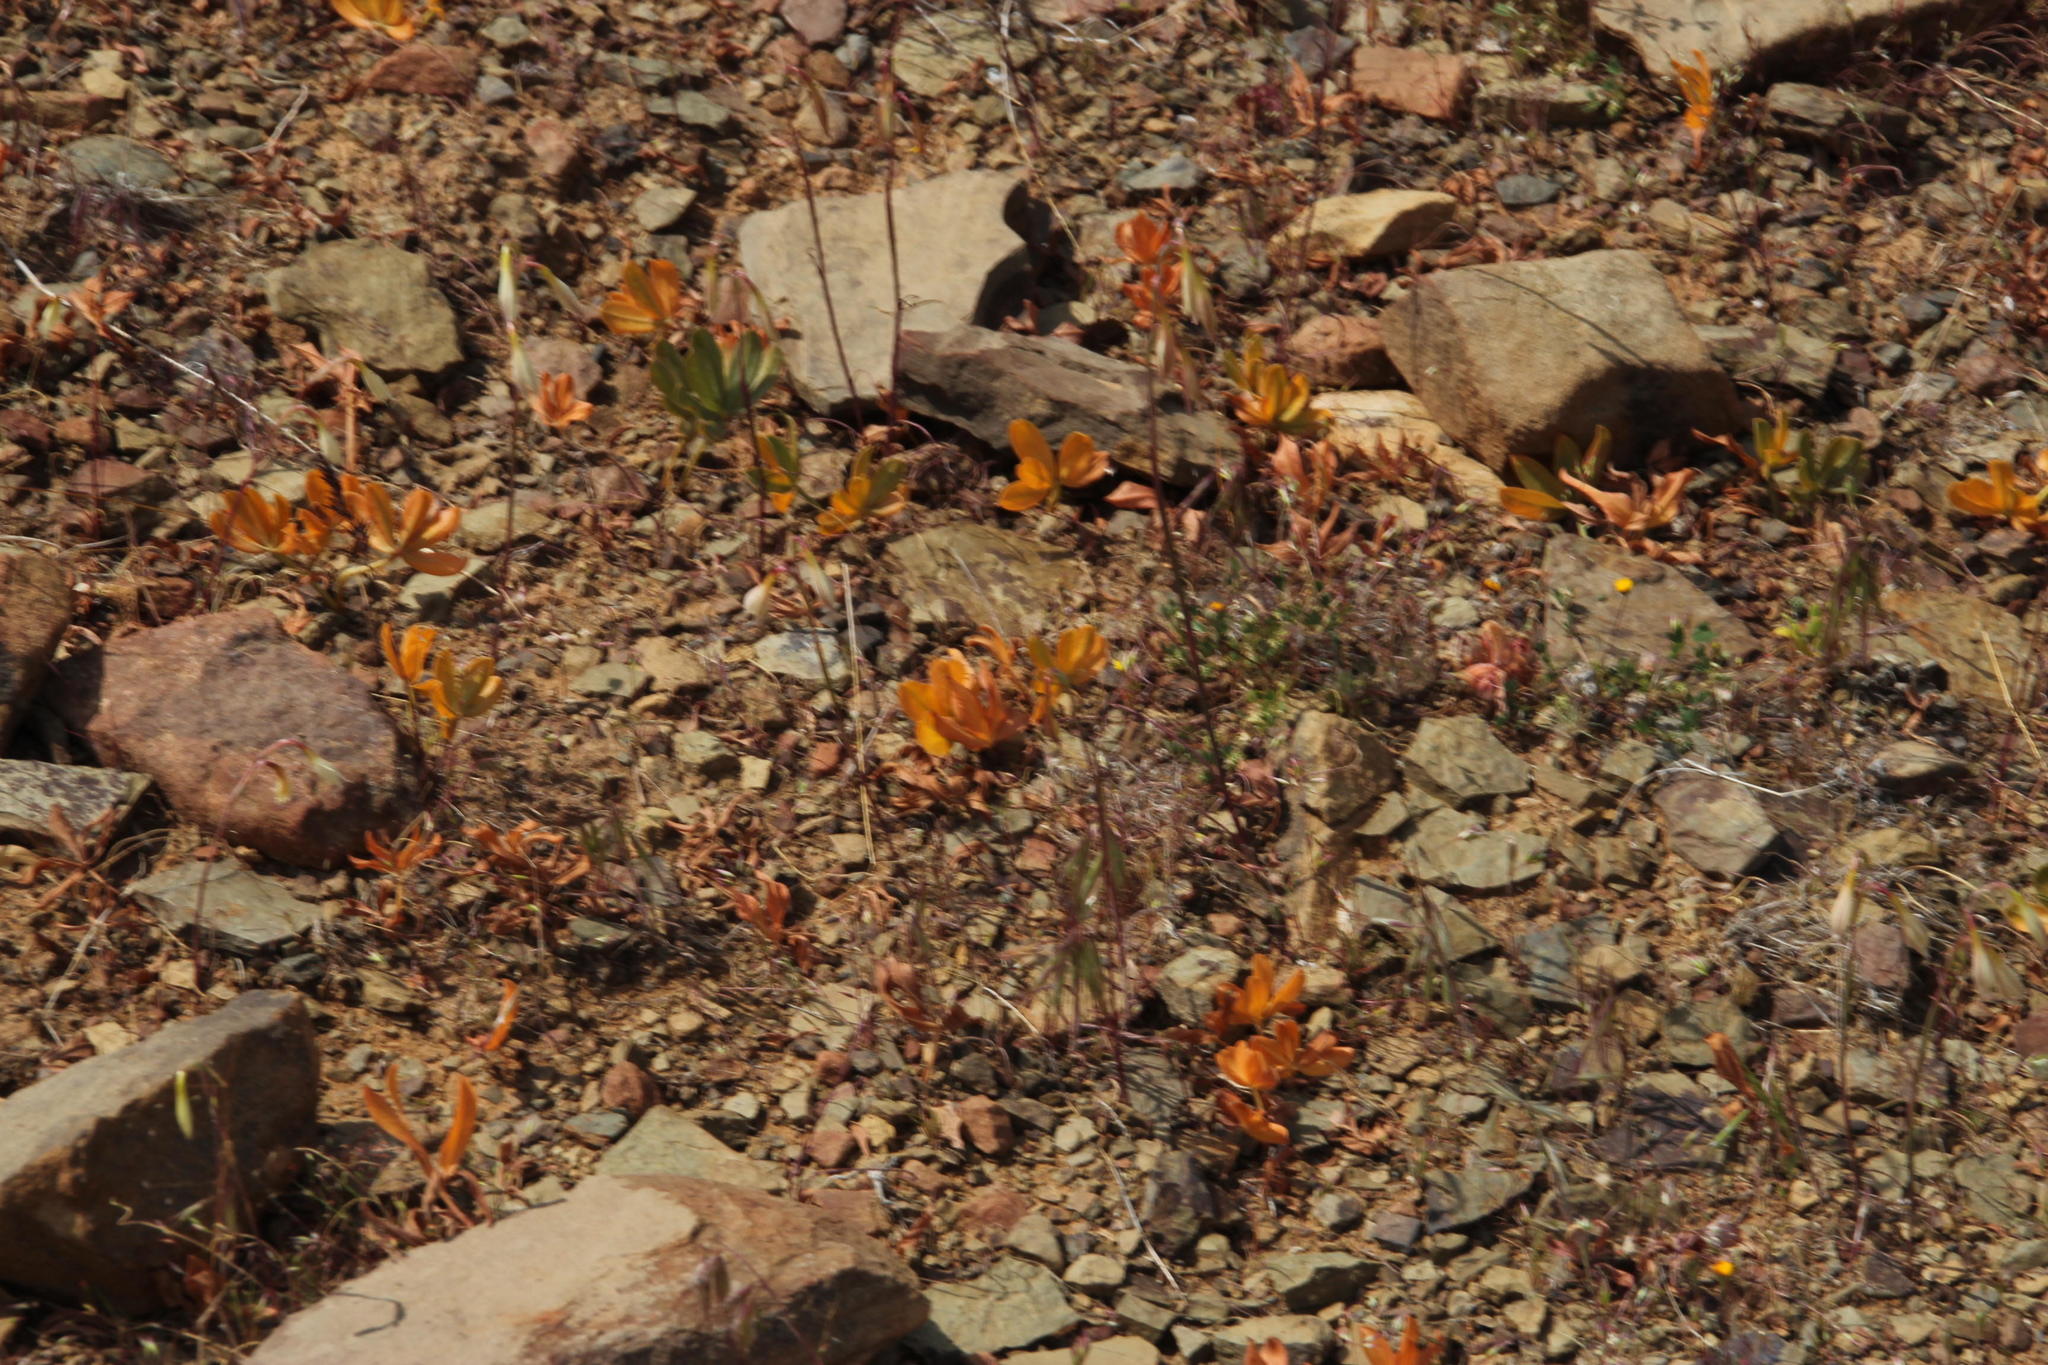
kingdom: Plantae
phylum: Tracheophyta
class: Magnoliopsida
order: Oxalidales
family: Oxalidaceae
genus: Oxalis
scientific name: Oxalis flava
